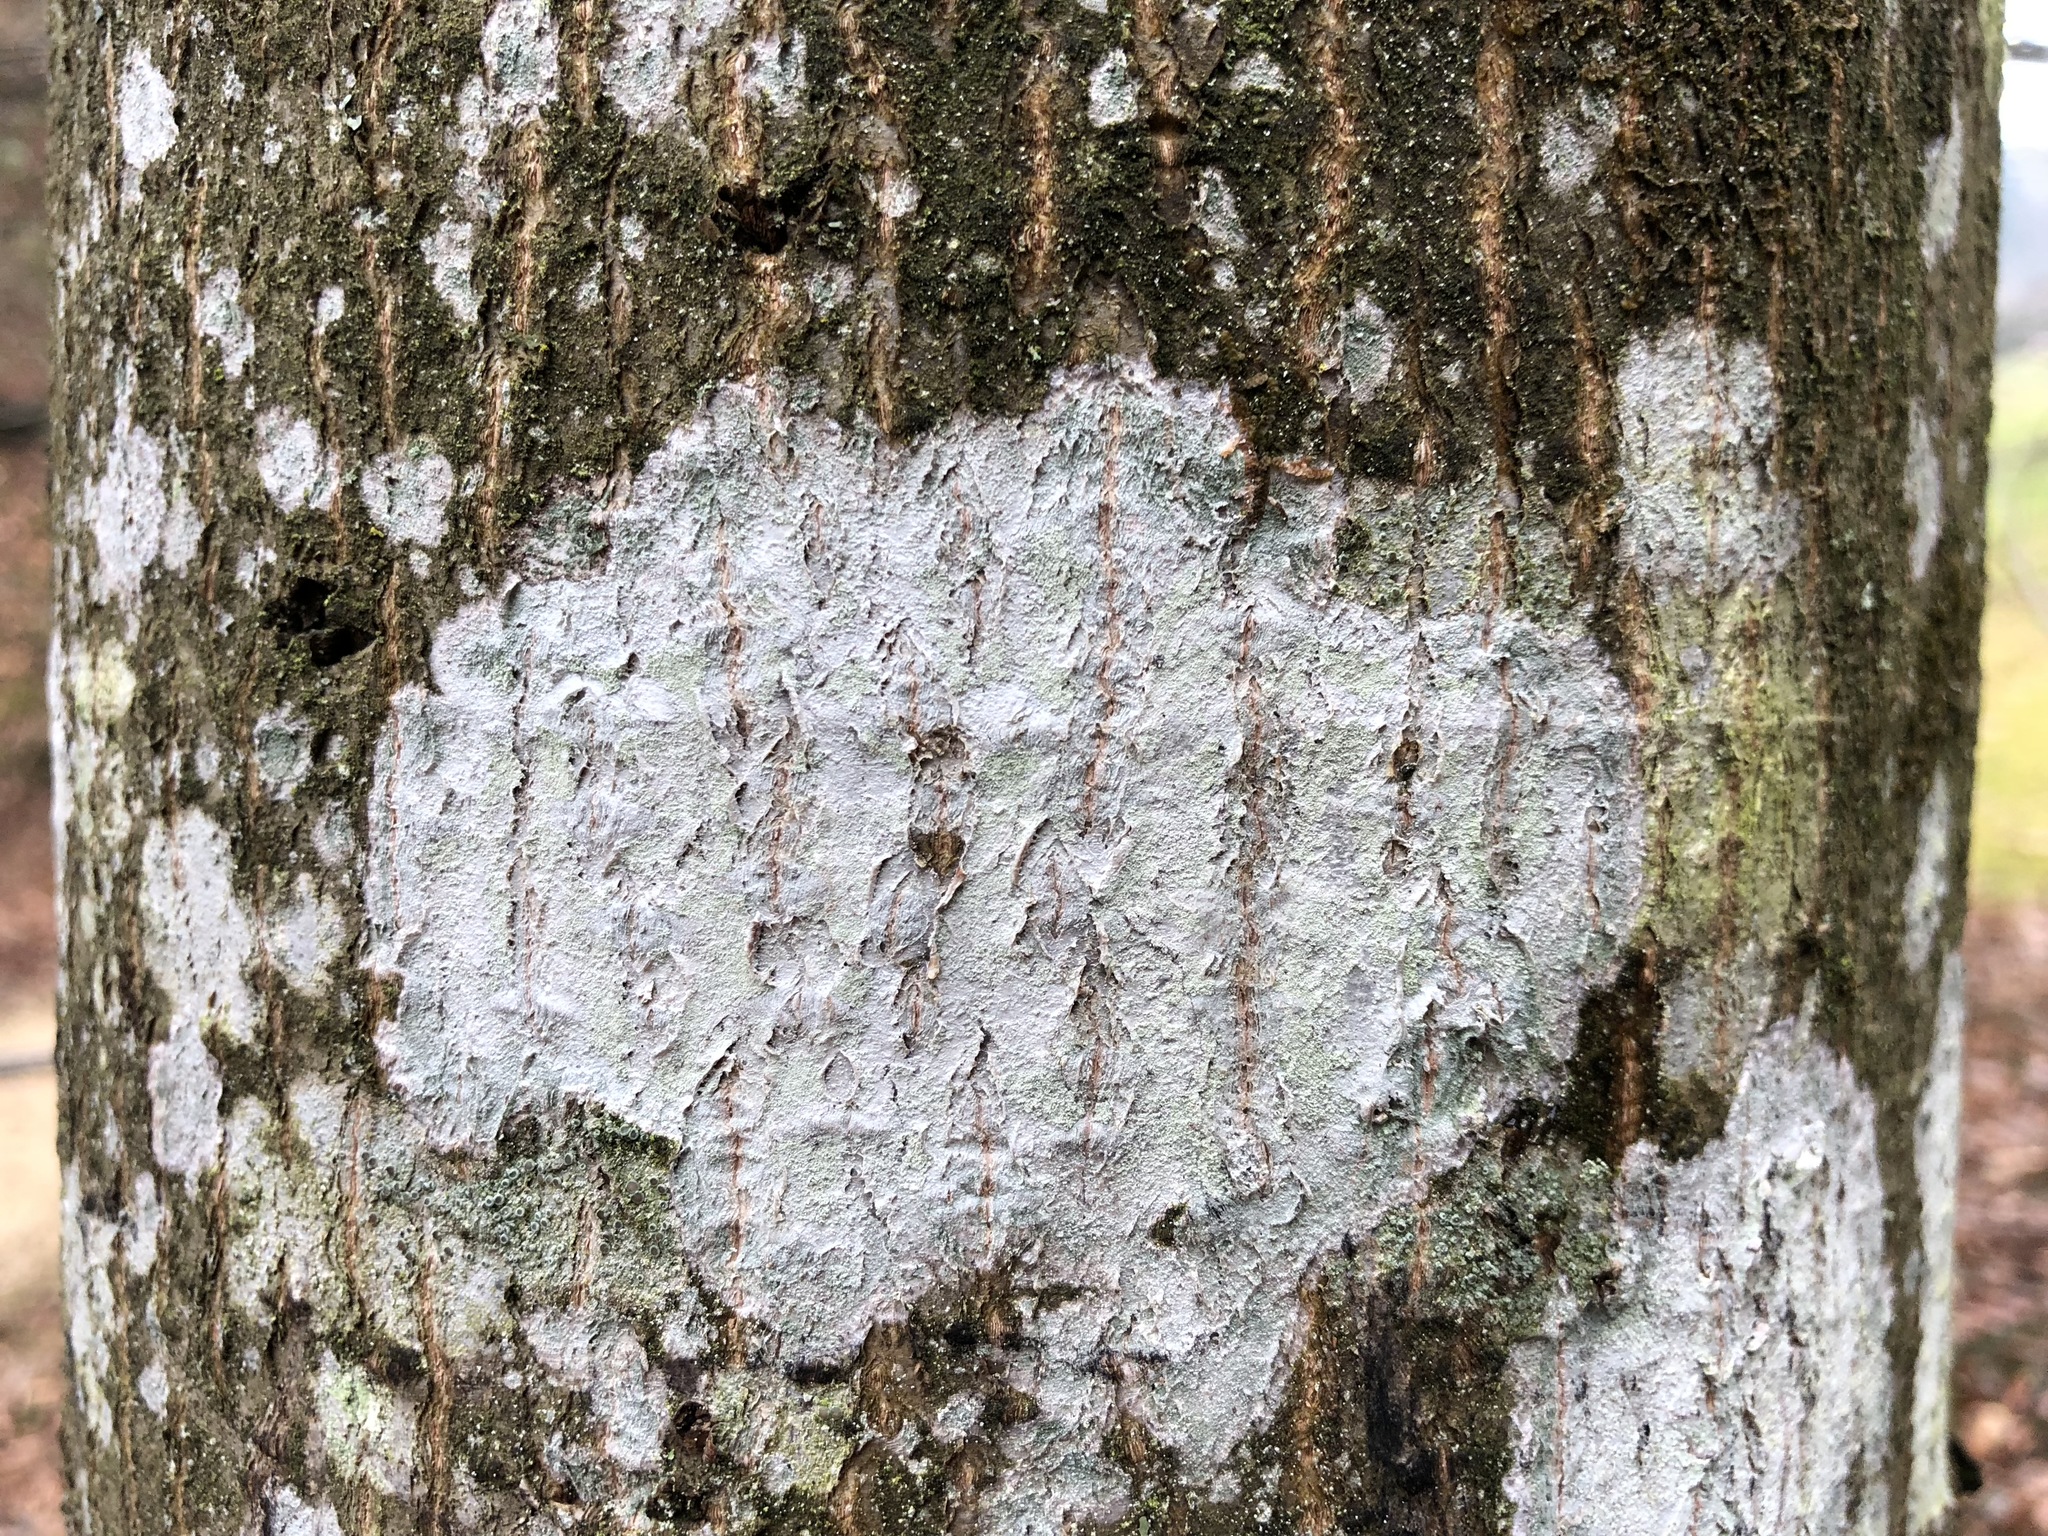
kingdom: Fungi
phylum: Ascomycota
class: Lecanoromycetes
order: Ostropales
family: Phlyctidaceae
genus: Phlyctis
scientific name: Phlyctis argena
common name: Whitewash lichen
